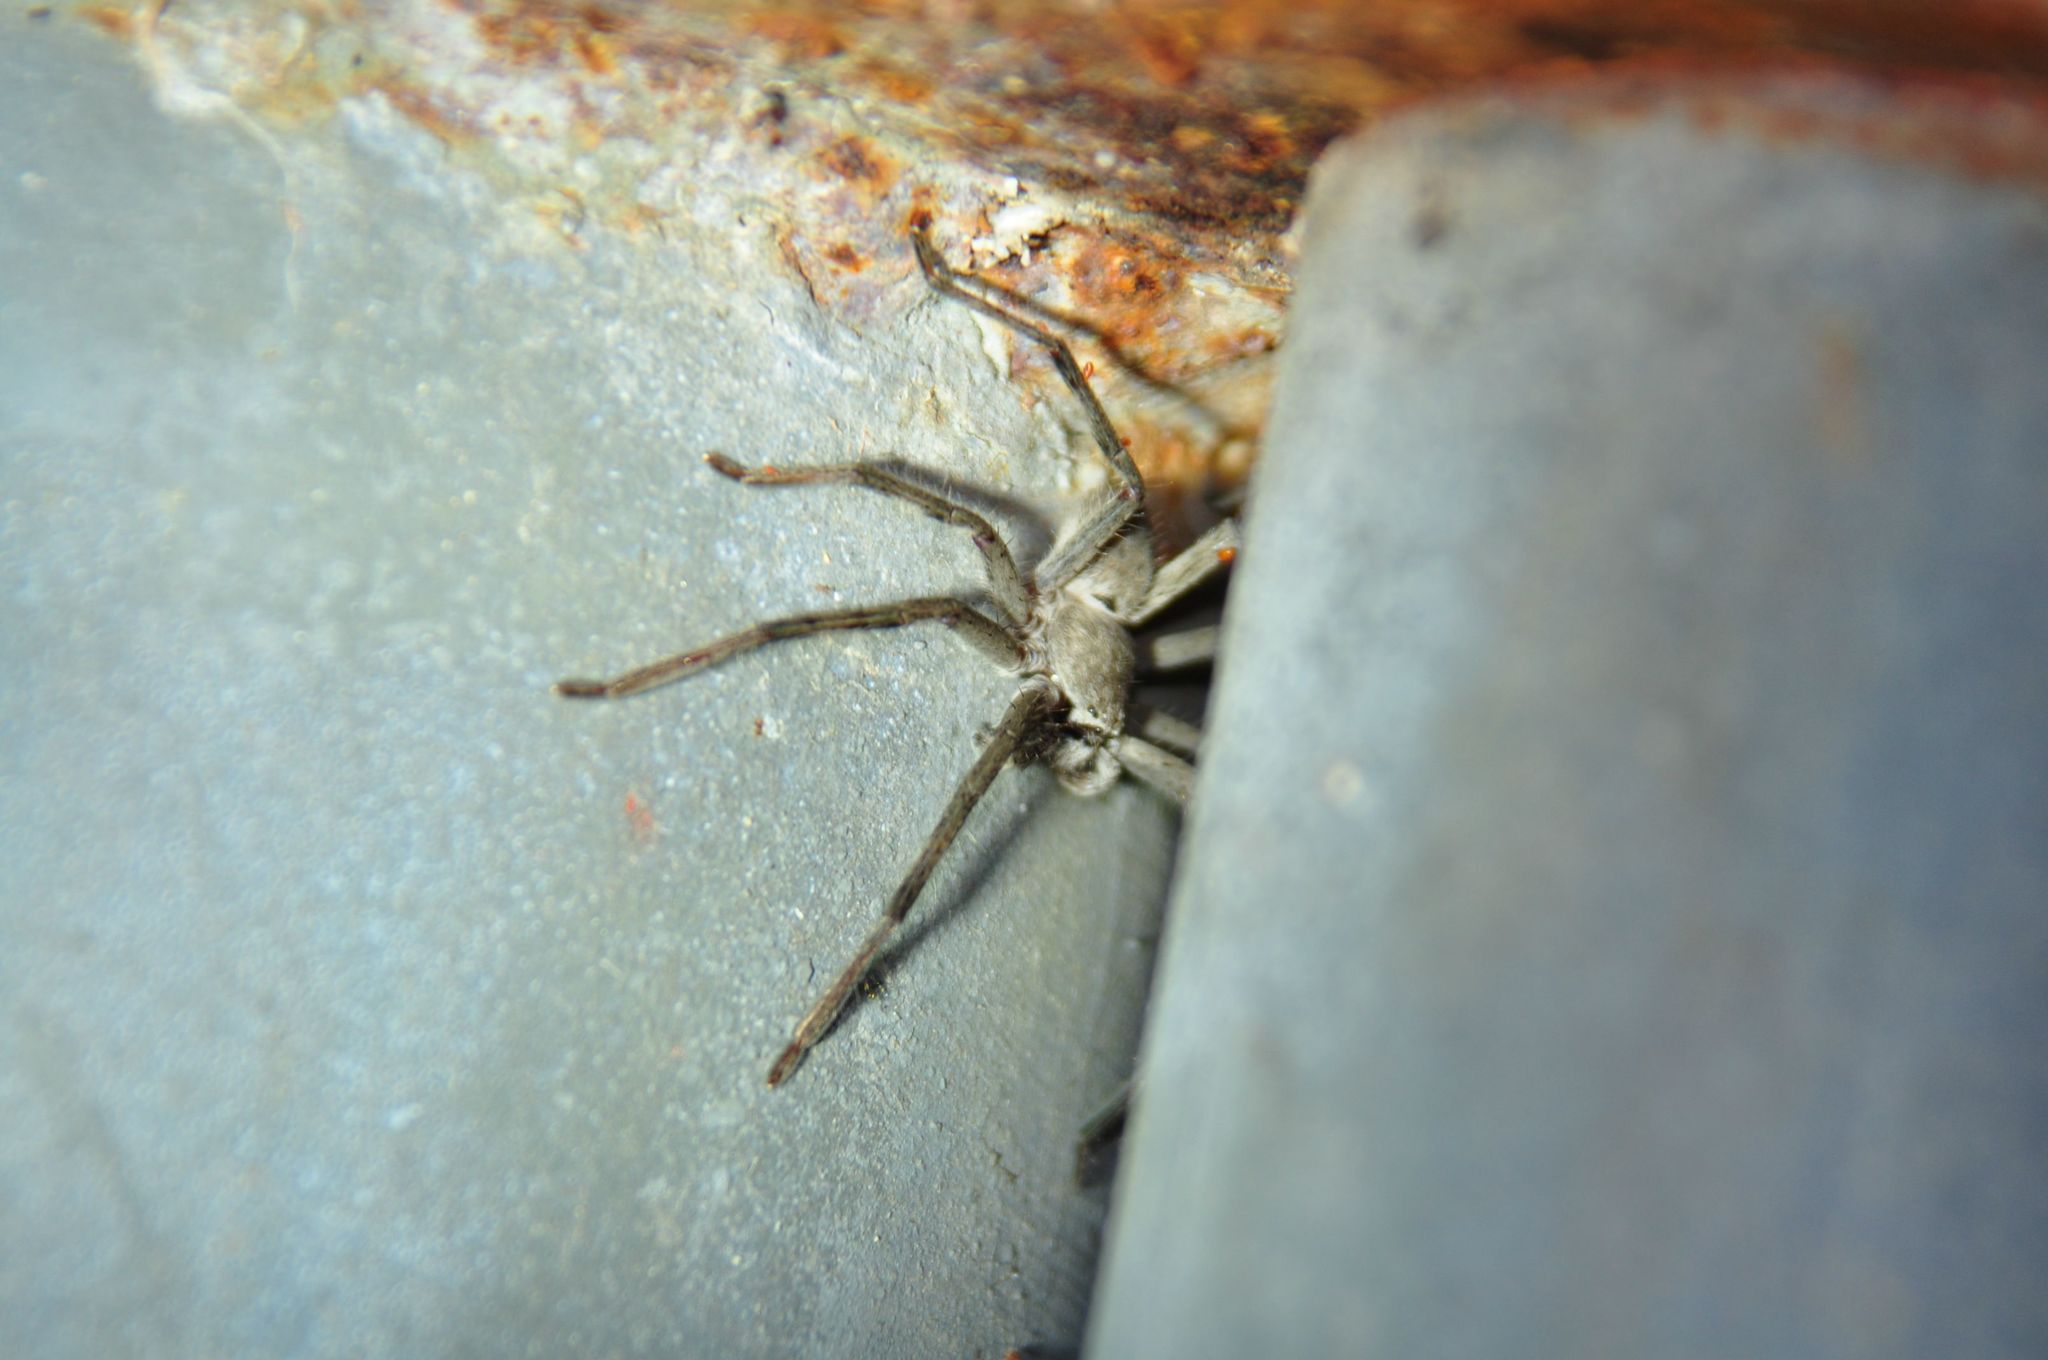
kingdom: Animalia
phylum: Arthropoda
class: Arachnida
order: Araneae
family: Sparassidae
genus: Isopedella
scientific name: Isopedella pessleri
